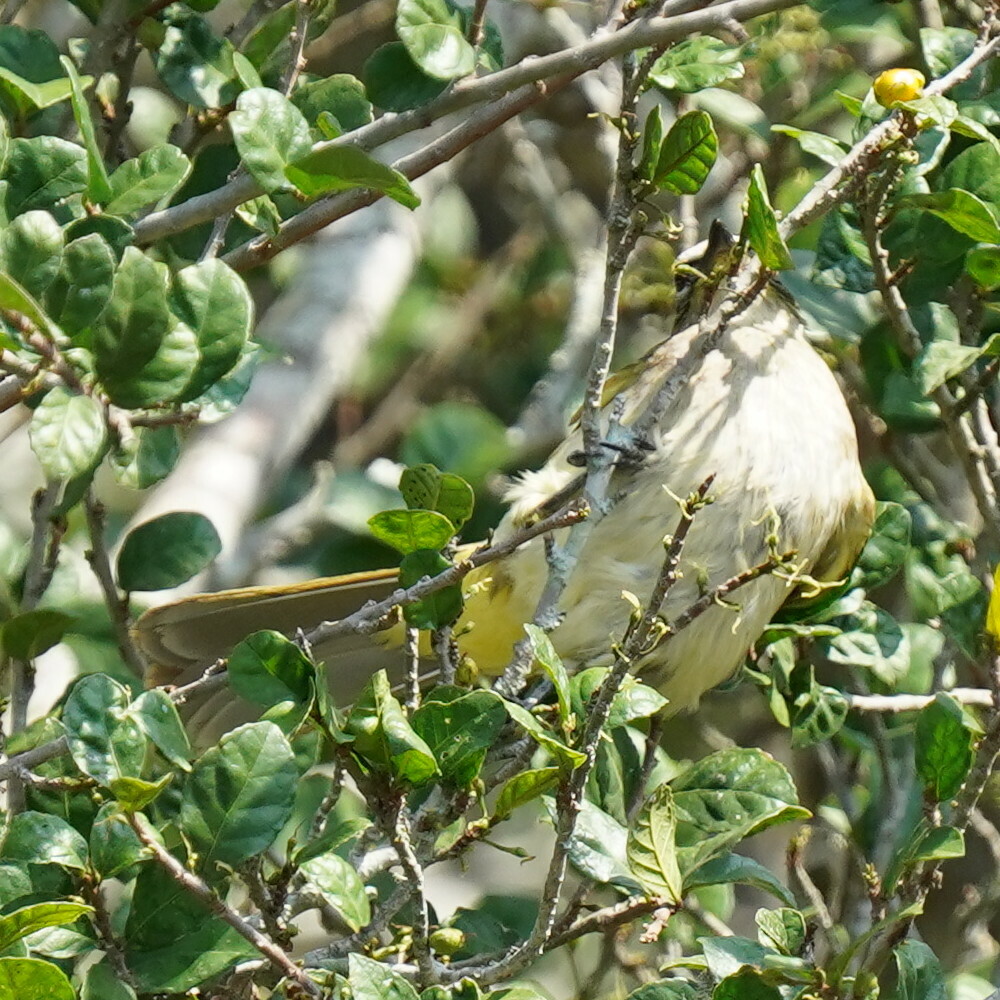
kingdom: Animalia
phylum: Chordata
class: Aves
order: Passeriformes
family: Pycnonotidae
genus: Pycnonotus
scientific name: Pycnonotus luteolus
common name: White-browed bulbul
